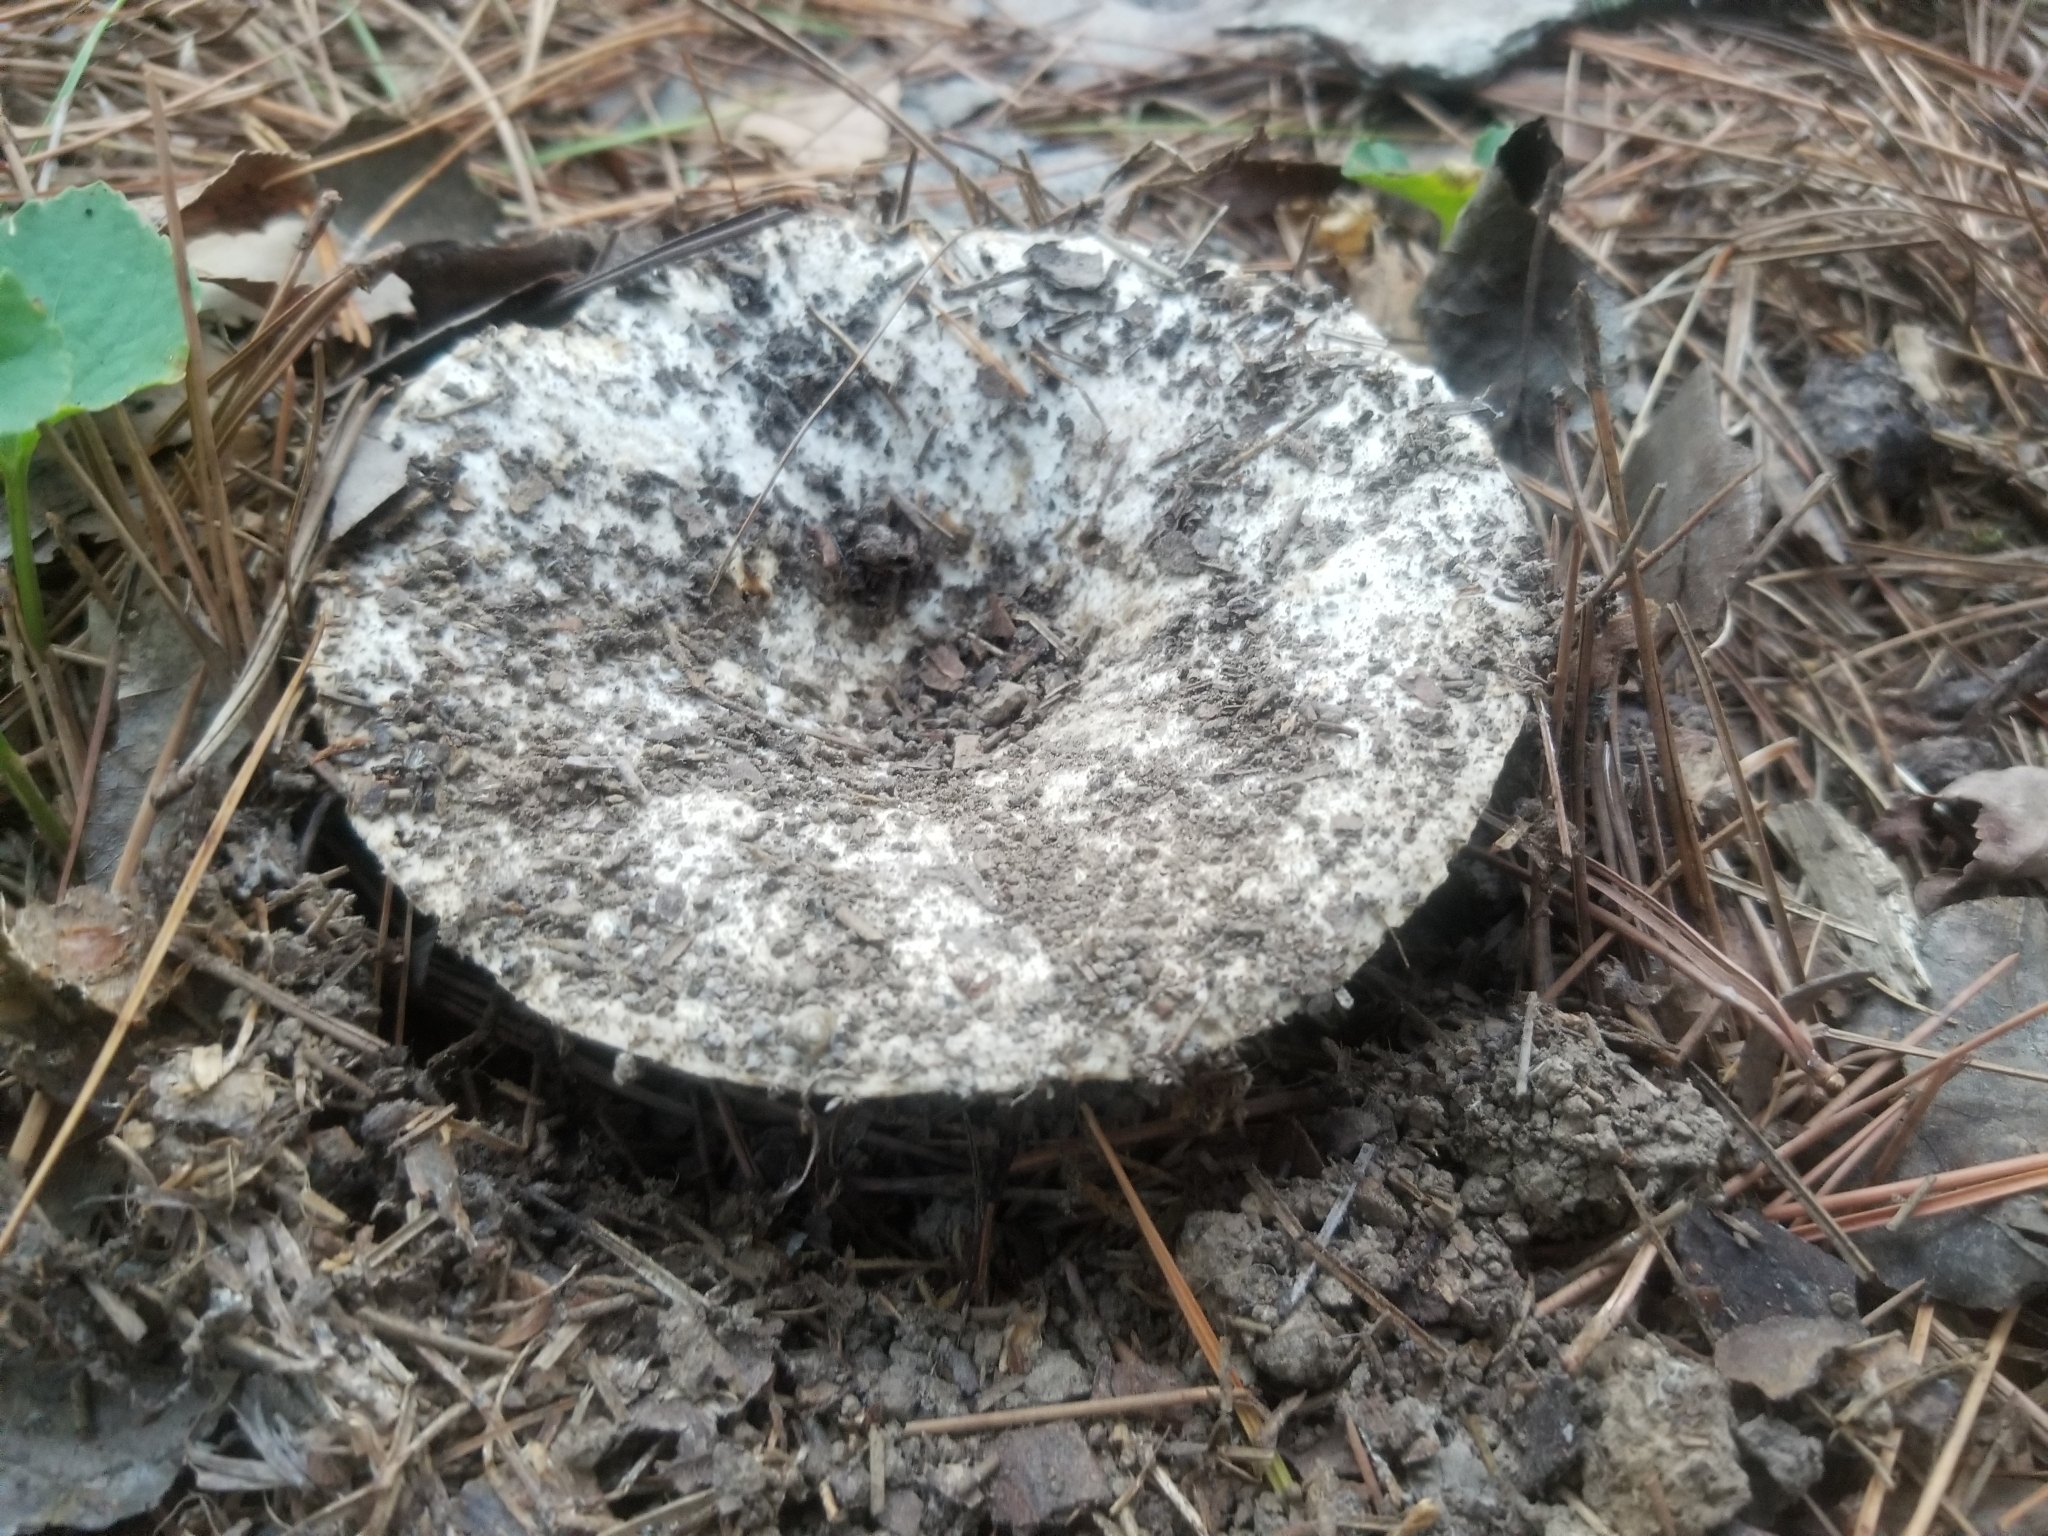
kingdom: Fungi
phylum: Basidiomycota
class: Agaricomycetes
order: Russulales
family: Russulaceae
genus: Russula
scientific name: Russula brevipes
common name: Short-stemmed russula
